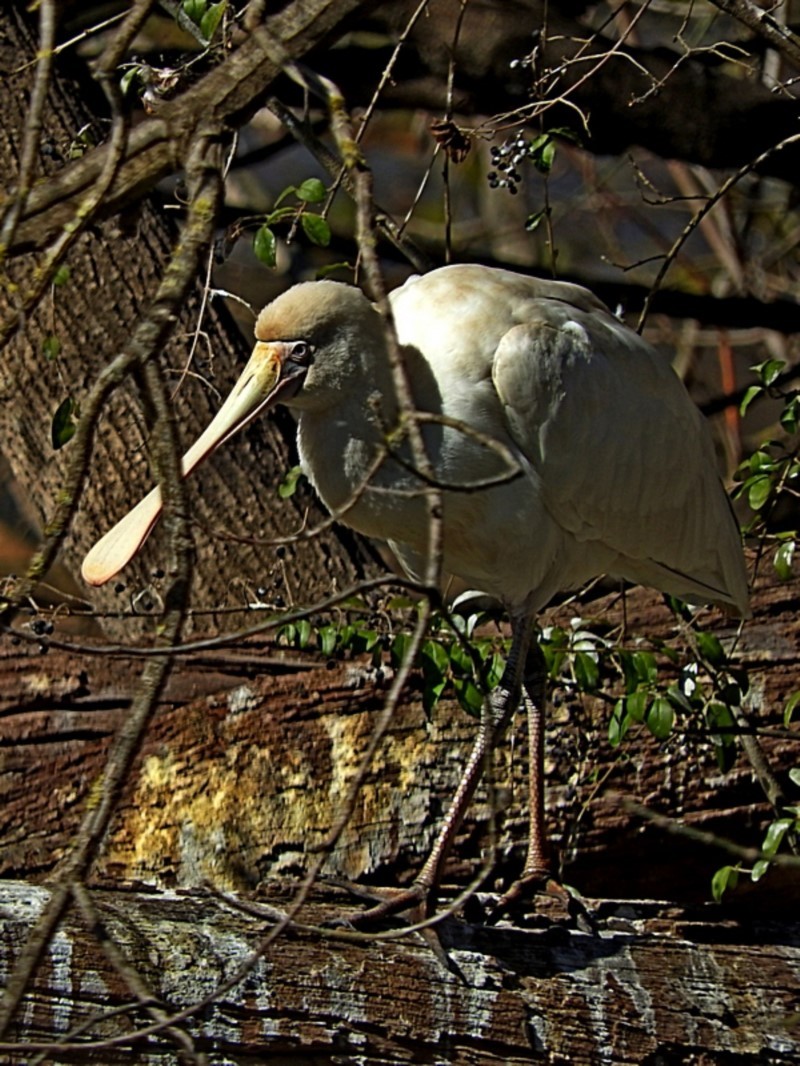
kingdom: Animalia
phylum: Chordata
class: Aves
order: Pelecaniformes
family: Threskiornithidae
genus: Platalea
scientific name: Platalea flavipes
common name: Yellow-billed spoonbill
